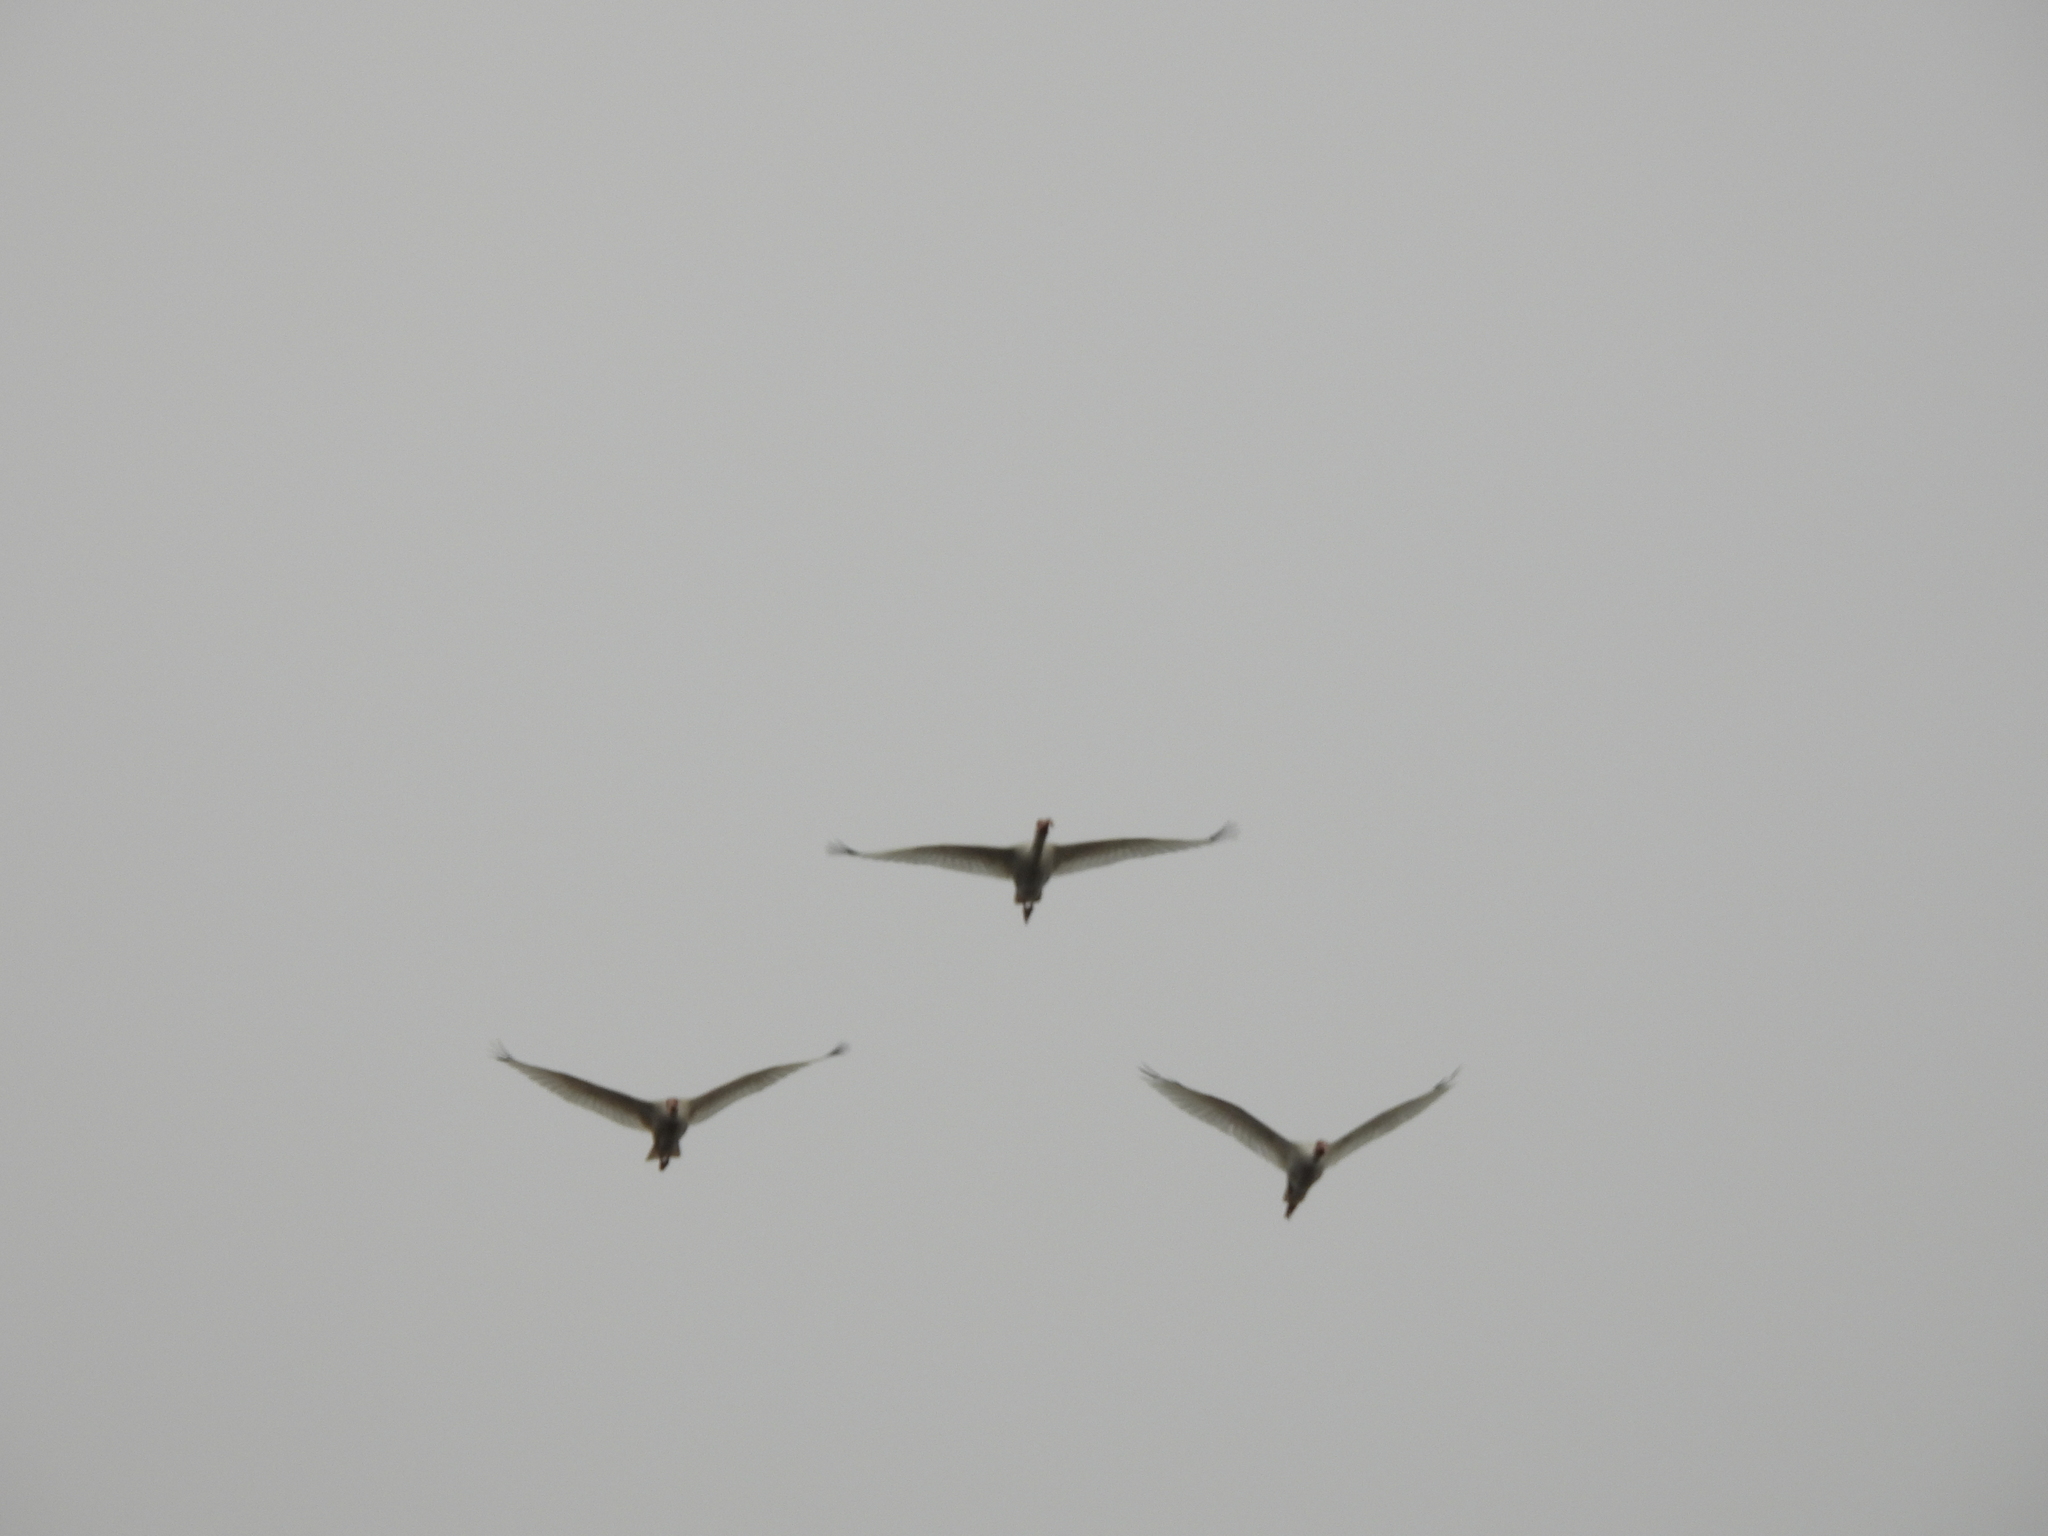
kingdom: Animalia
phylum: Chordata
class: Aves
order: Pelecaniformes
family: Threskiornithidae
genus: Eudocimus
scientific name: Eudocimus albus
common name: White ibis
